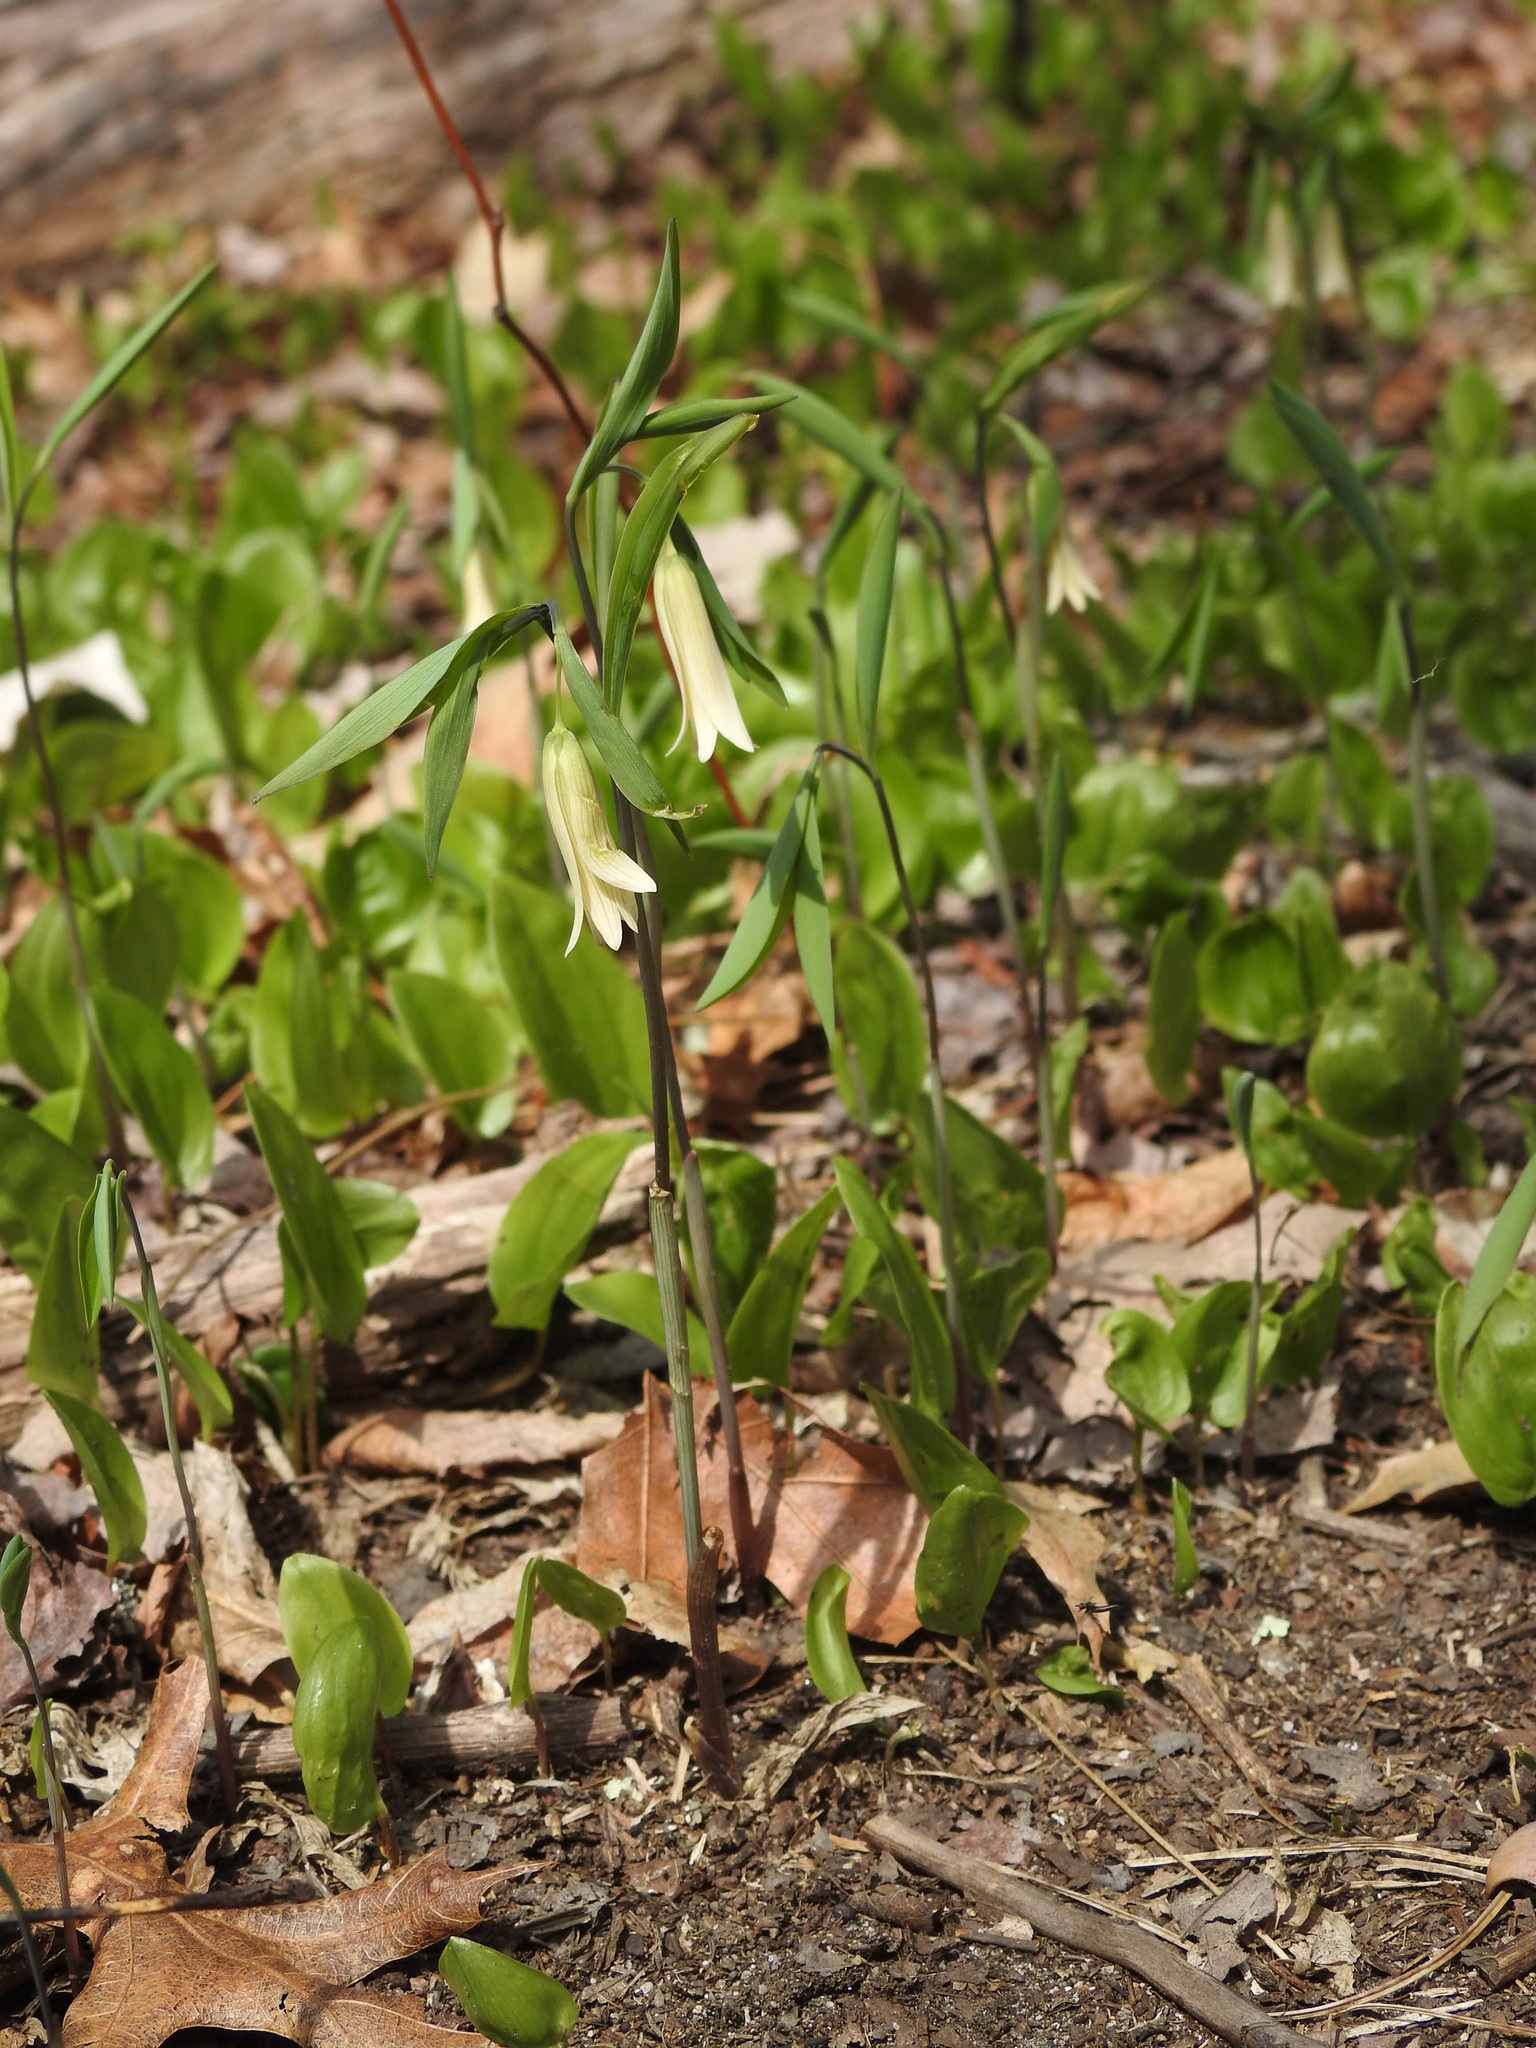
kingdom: Plantae
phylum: Tracheophyta
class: Liliopsida
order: Liliales
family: Colchicaceae
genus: Uvularia
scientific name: Uvularia sessilifolia
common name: Straw-lily
